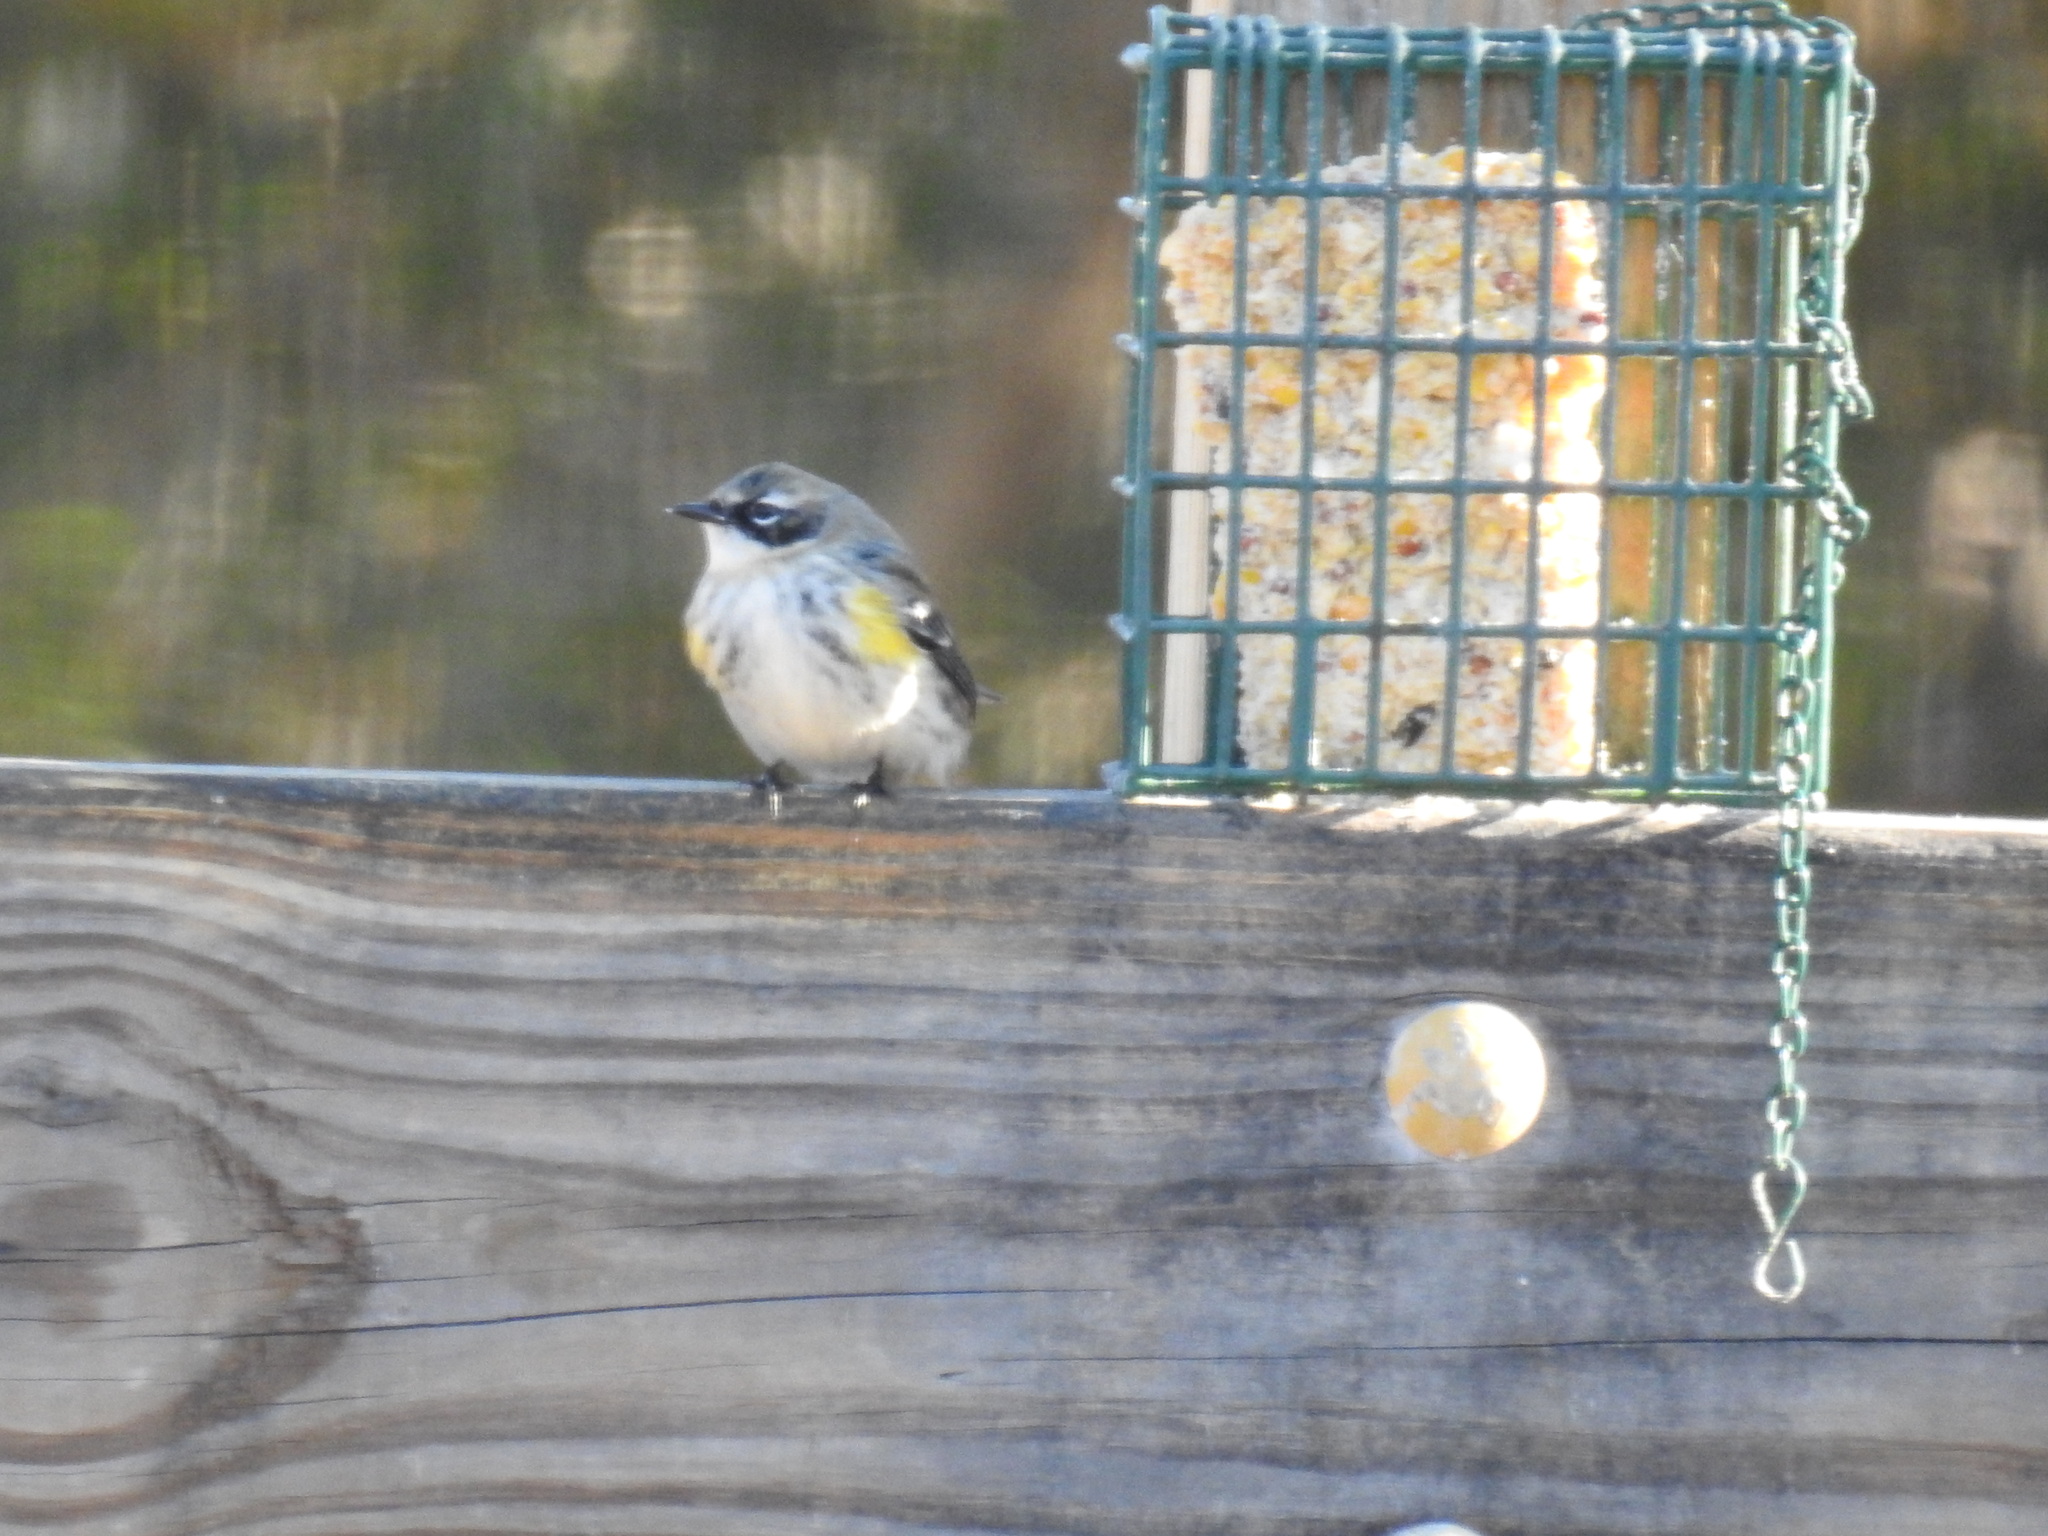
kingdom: Animalia
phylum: Chordata
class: Aves
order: Passeriformes
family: Parulidae
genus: Setophaga
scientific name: Setophaga coronata
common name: Myrtle warbler
